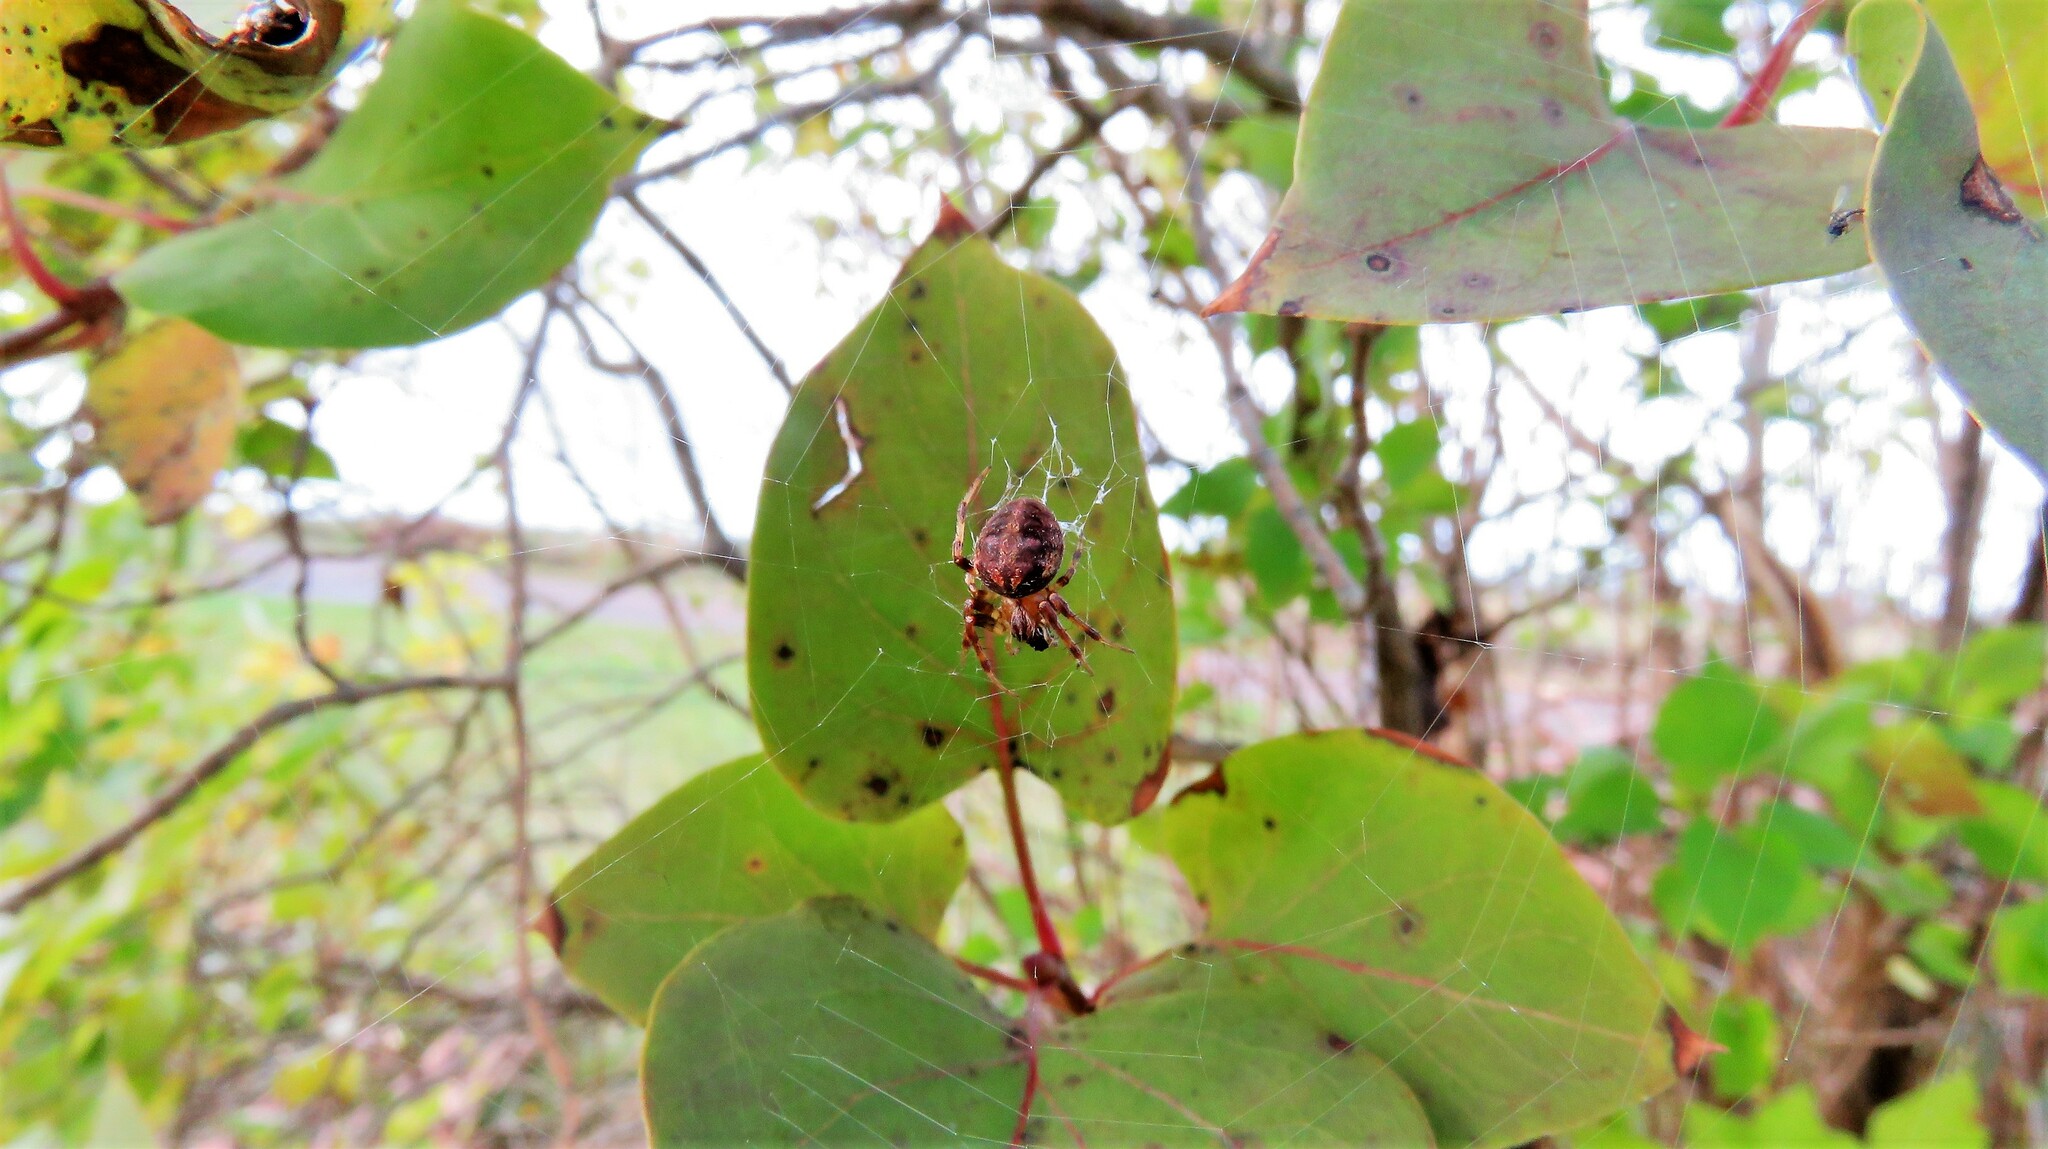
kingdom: Animalia
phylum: Arthropoda
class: Arachnida
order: Araneae
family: Araneidae
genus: Neoscona
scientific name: Neoscona arabesca
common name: Orb weavers
